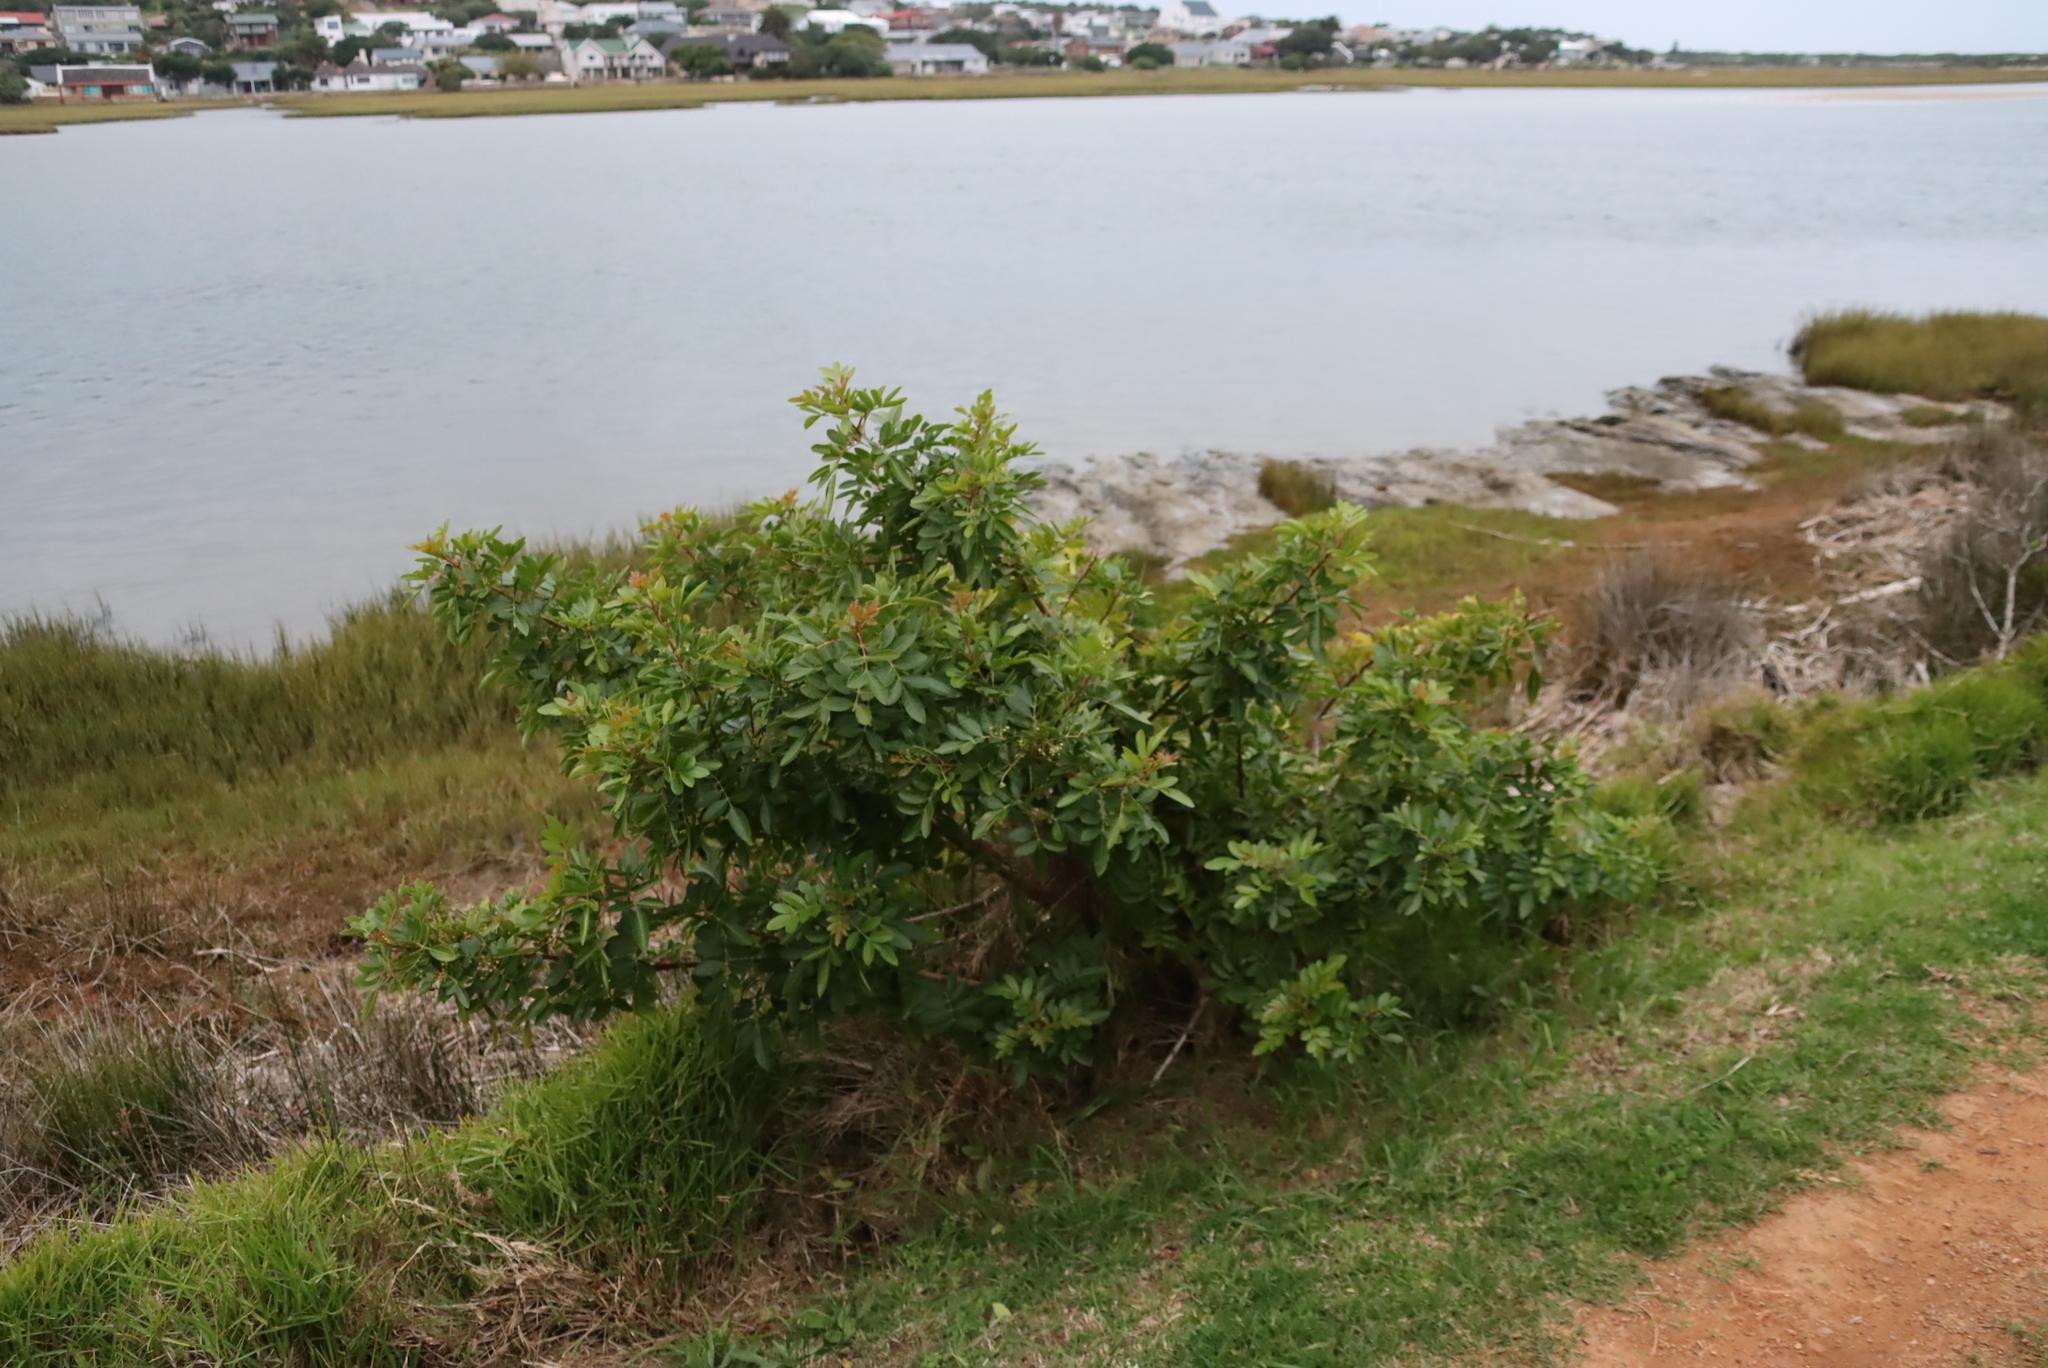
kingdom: Plantae
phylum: Tracheophyta
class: Magnoliopsida
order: Sapindales
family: Anacardiaceae
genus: Schinus
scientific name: Schinus terebinthifolia
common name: Brazilian peppertree
